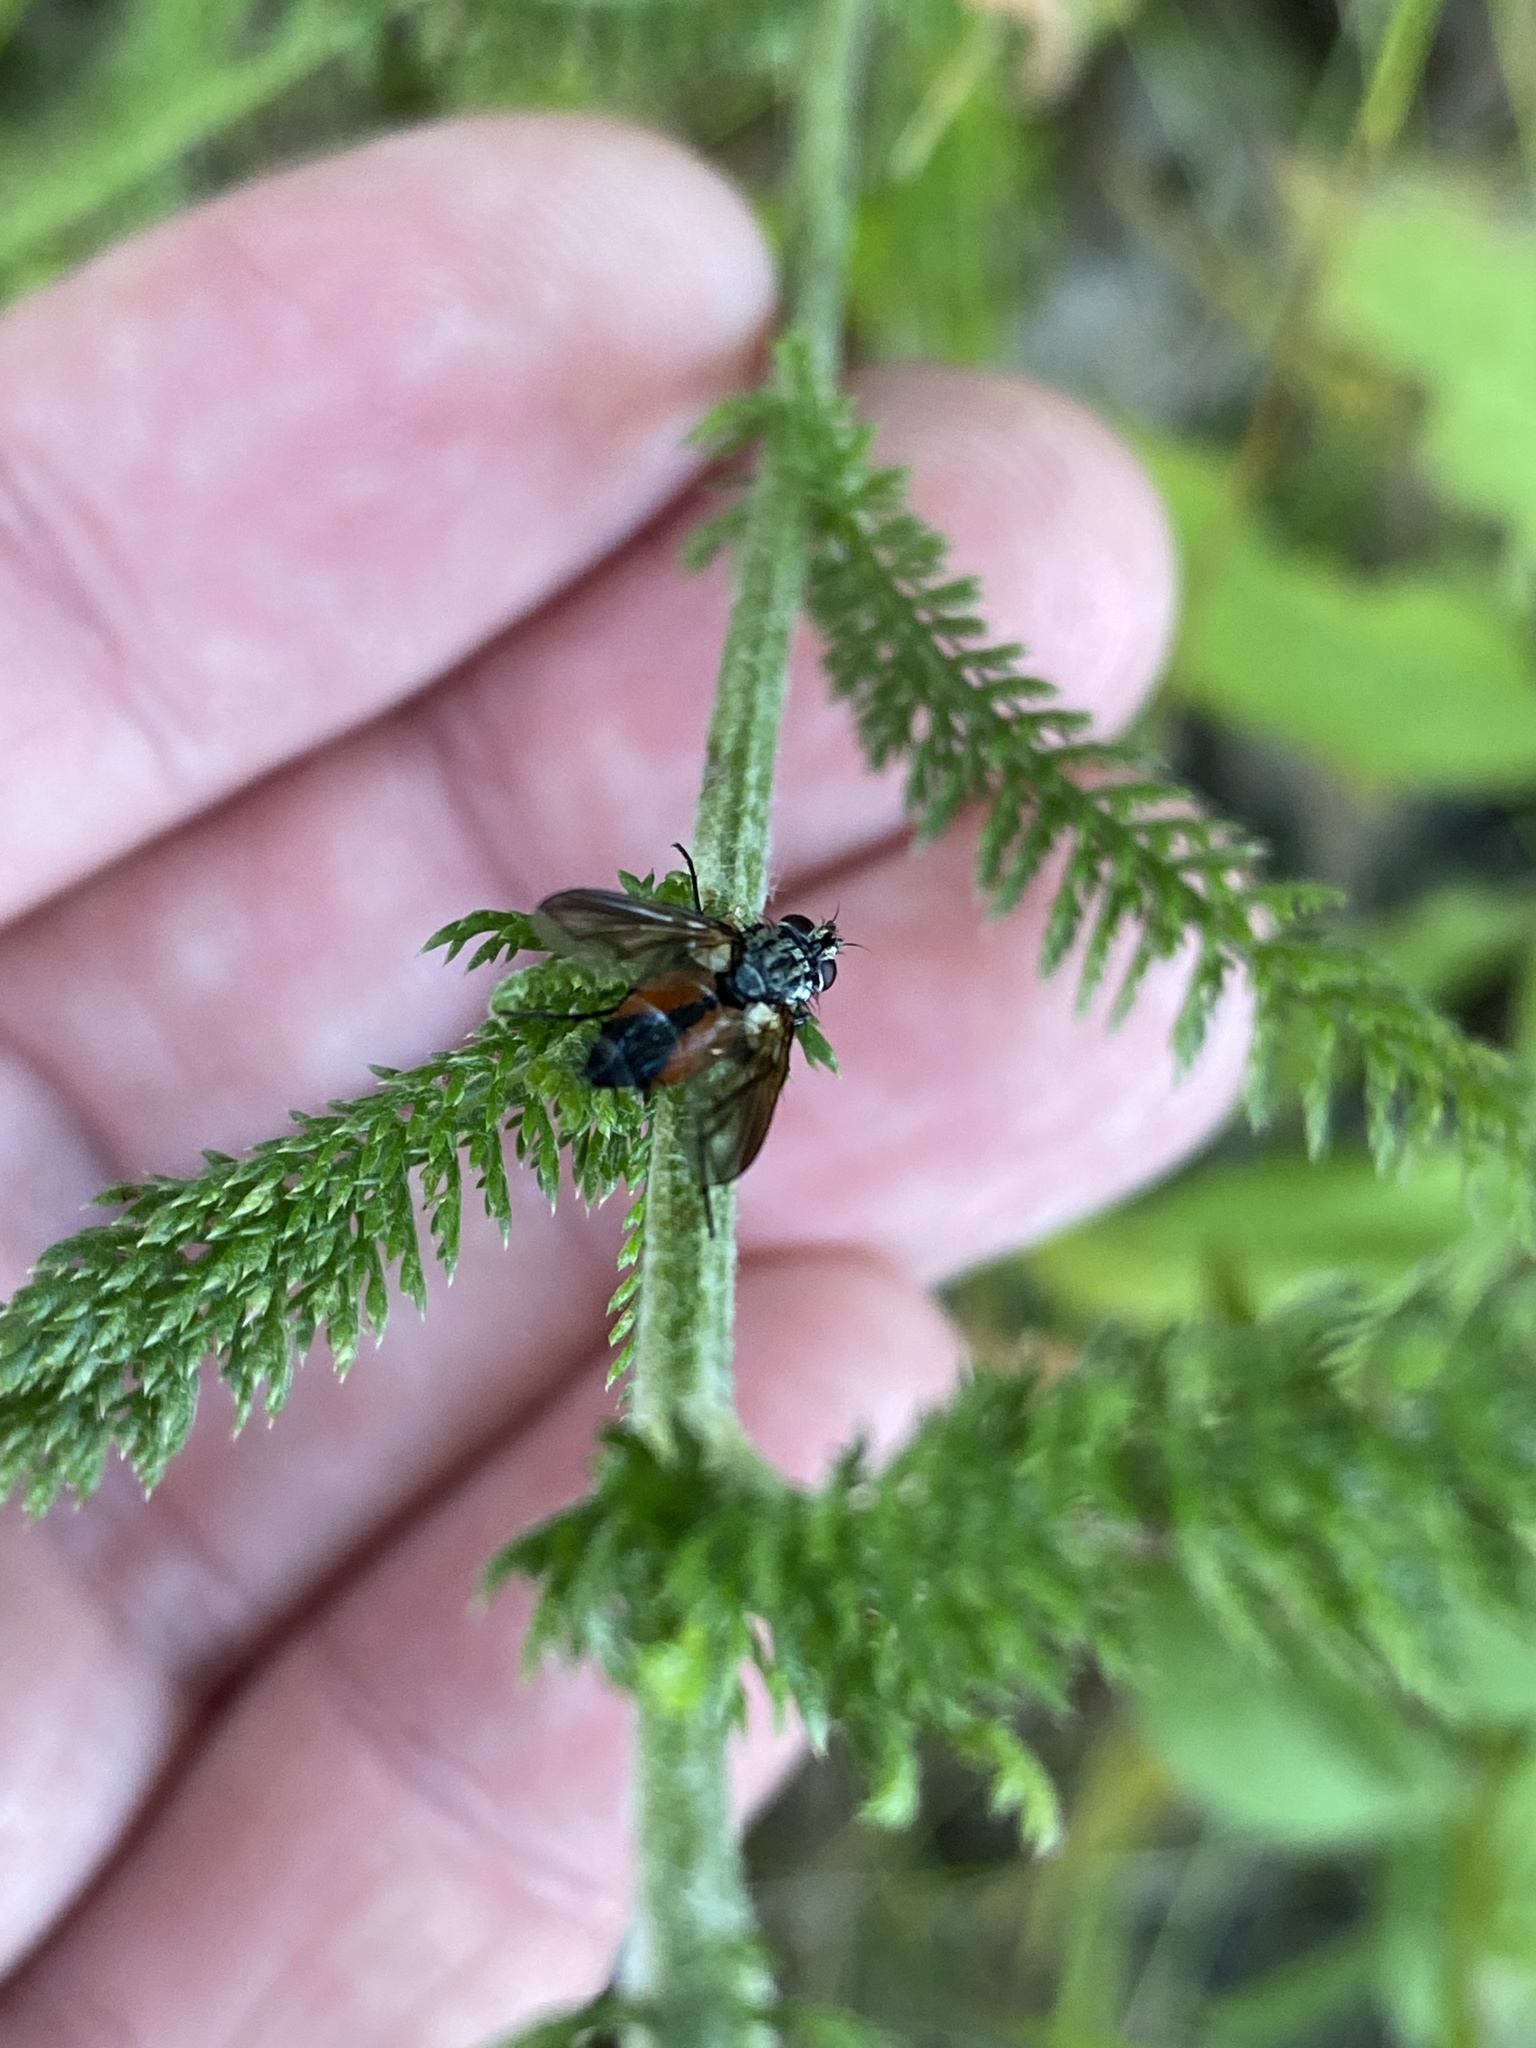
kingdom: Animalia
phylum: Arthropoda
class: Insecta
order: Diptera
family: Tachinidae
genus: Eriothrix
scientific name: Eriothrix rufomaculatus
